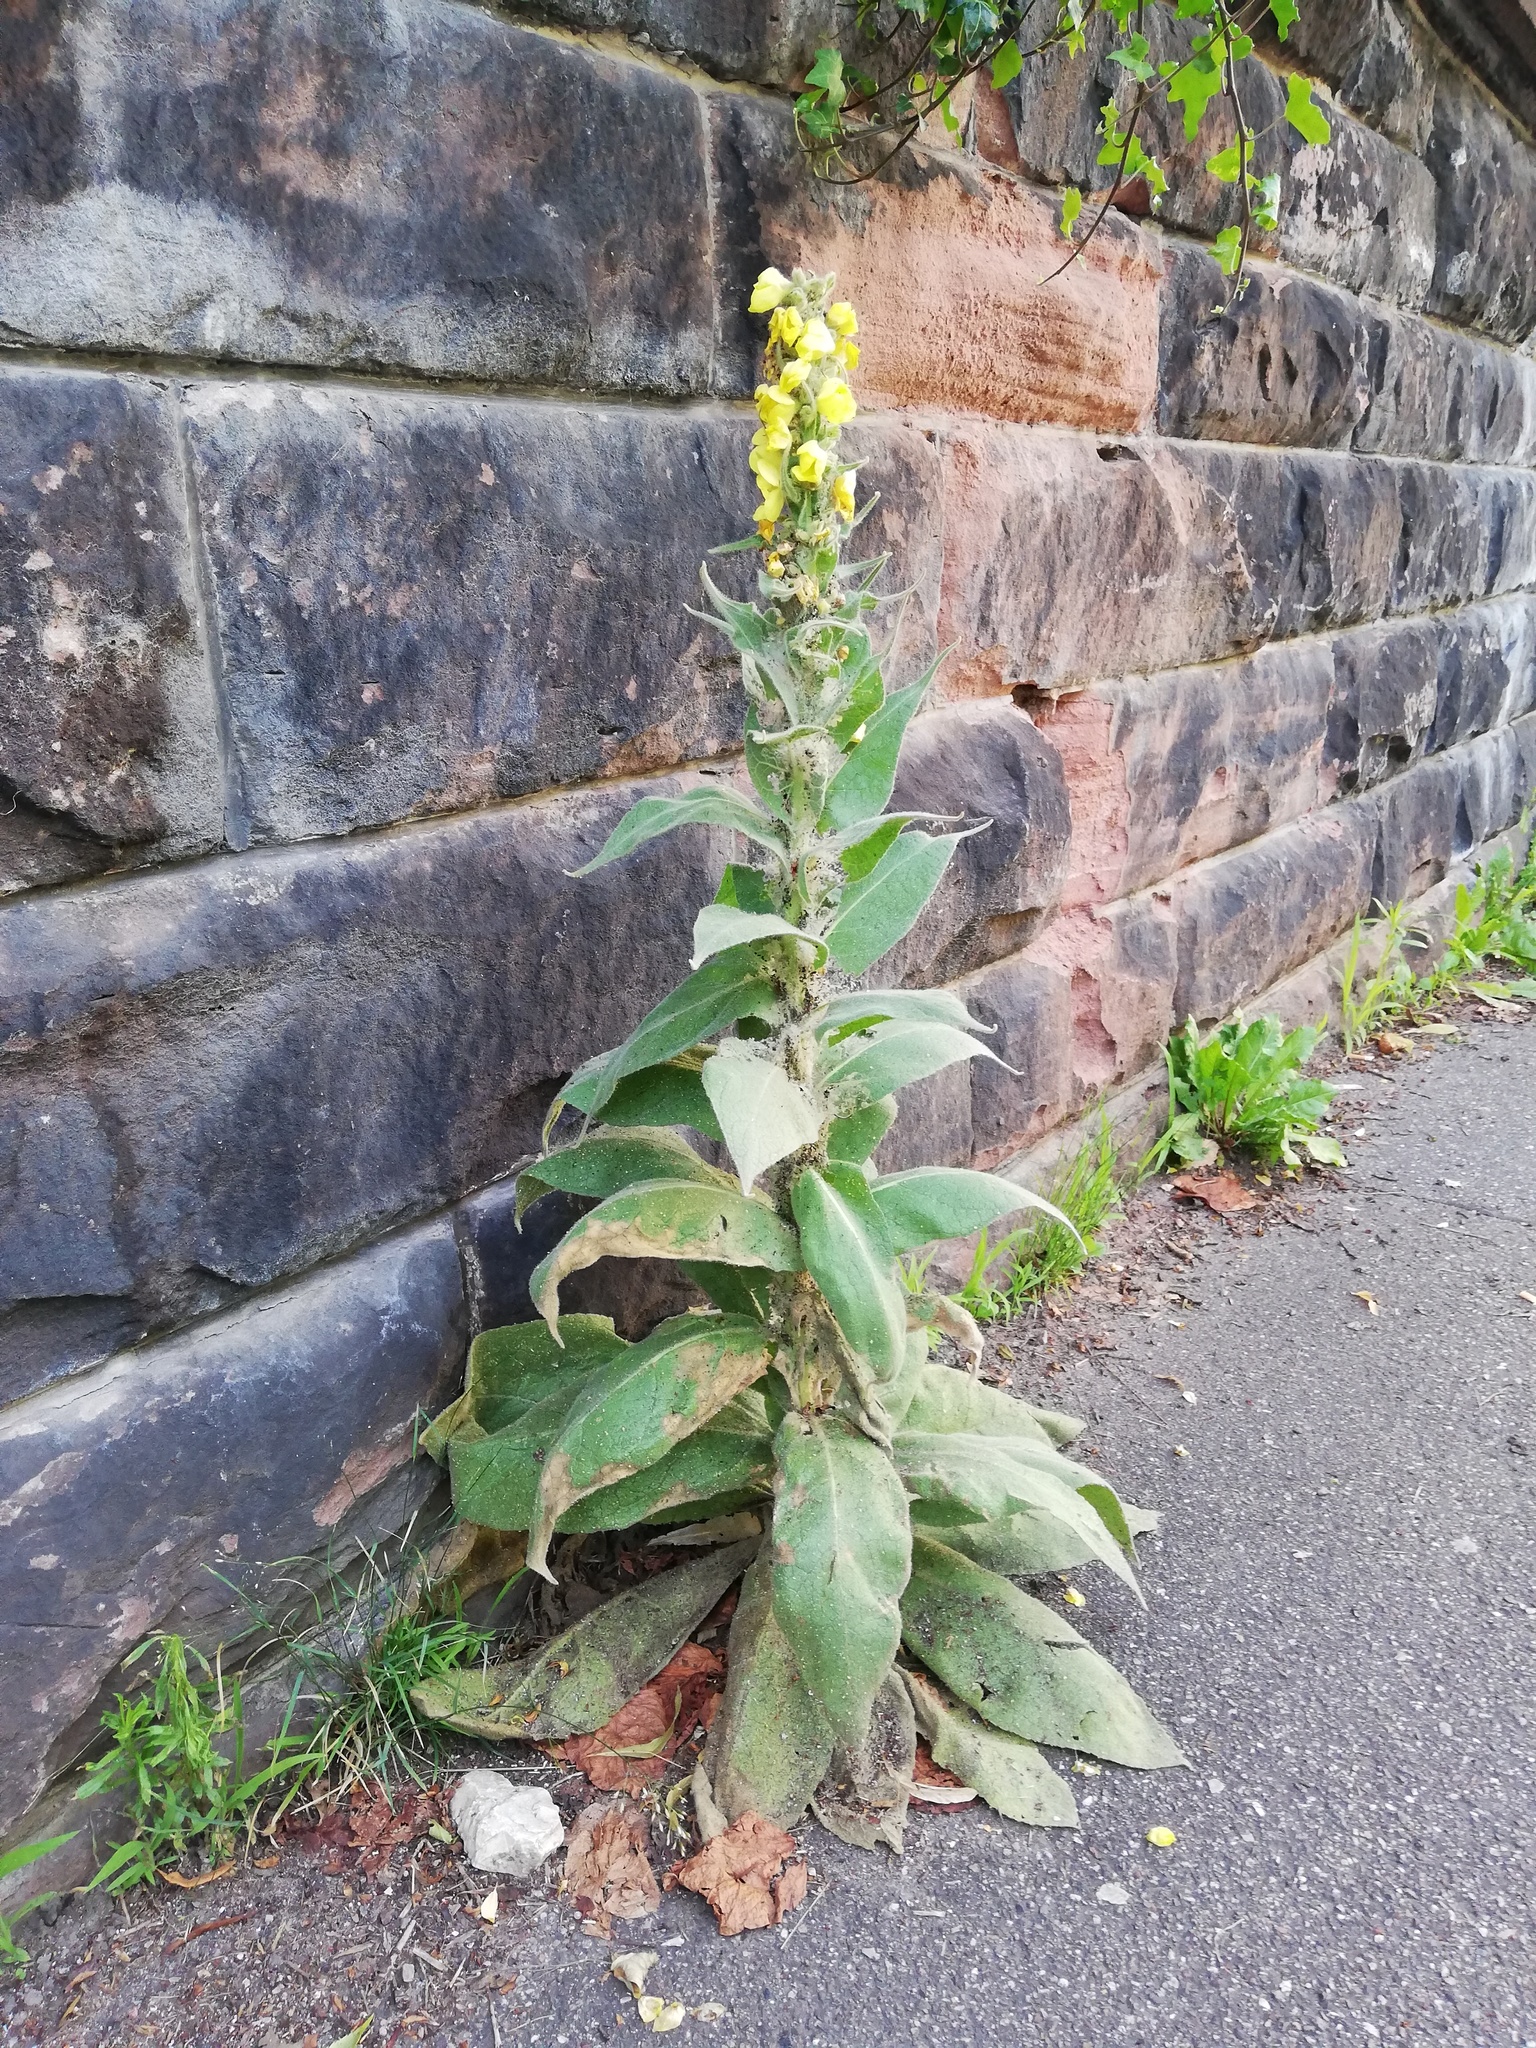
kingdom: Plantae
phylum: Tracheophyta
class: Magnoliopsida
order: Lamiales
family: Scrophulariaceae
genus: Verbascum
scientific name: Verbascum densiflorum
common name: Dense-flowered mullein
